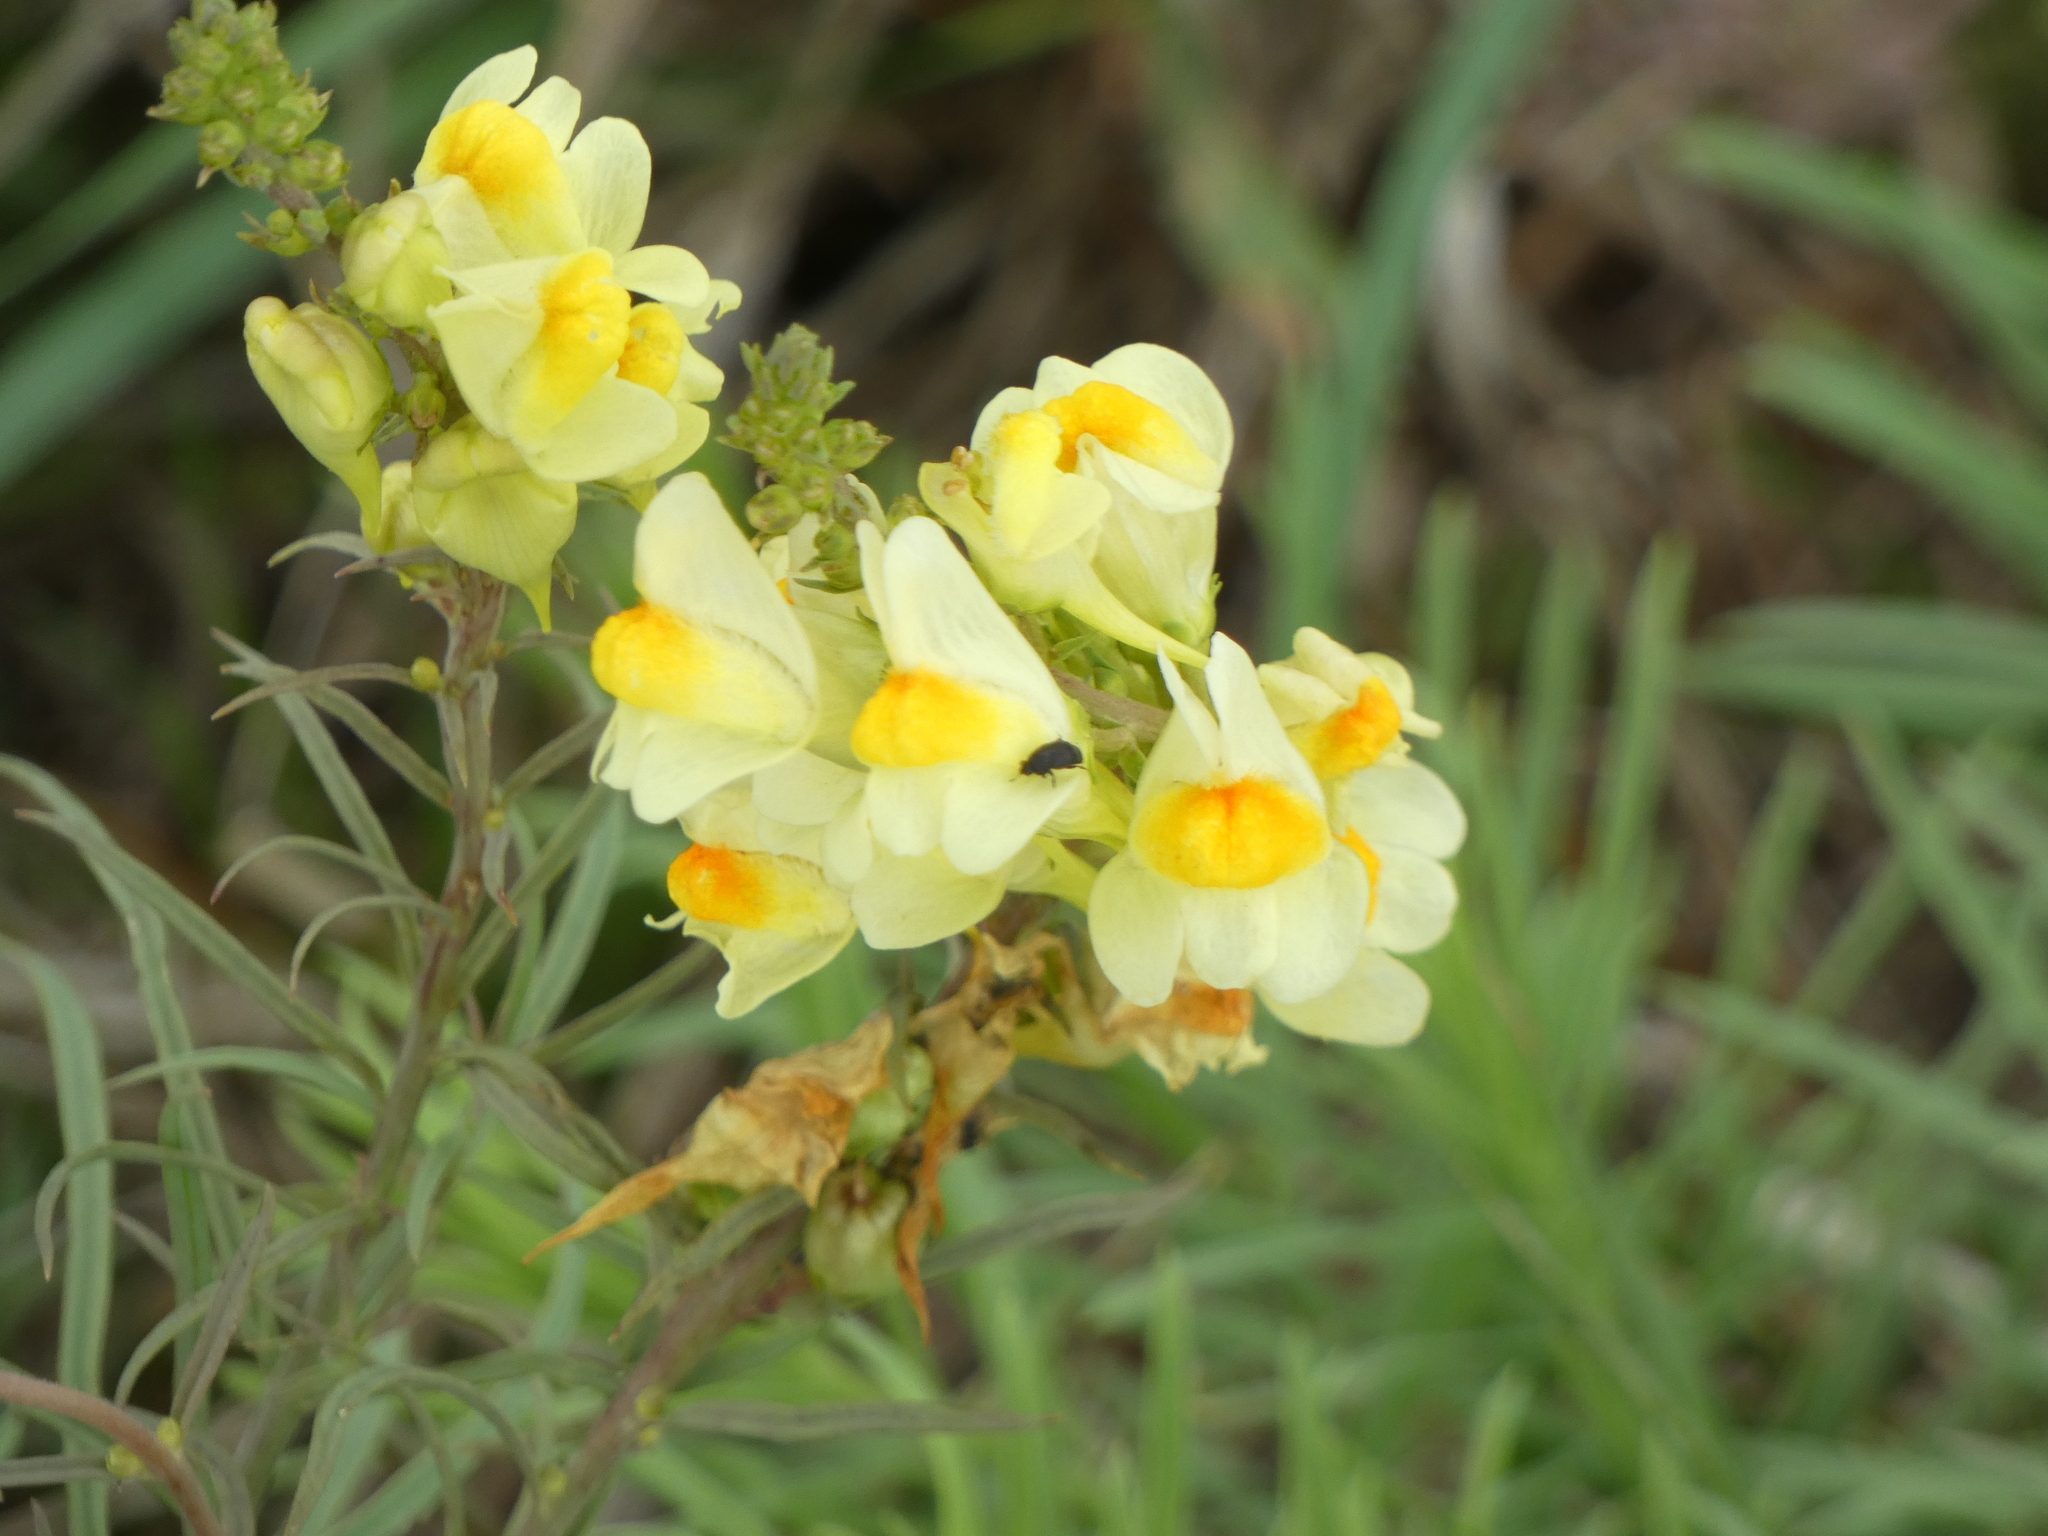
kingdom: Plantae
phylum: Tracheophyta
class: Magnoliopsida
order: Lamiales
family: Plantaginaceae
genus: Linaria
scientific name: Linaria vulgaris
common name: Butter and eggs
